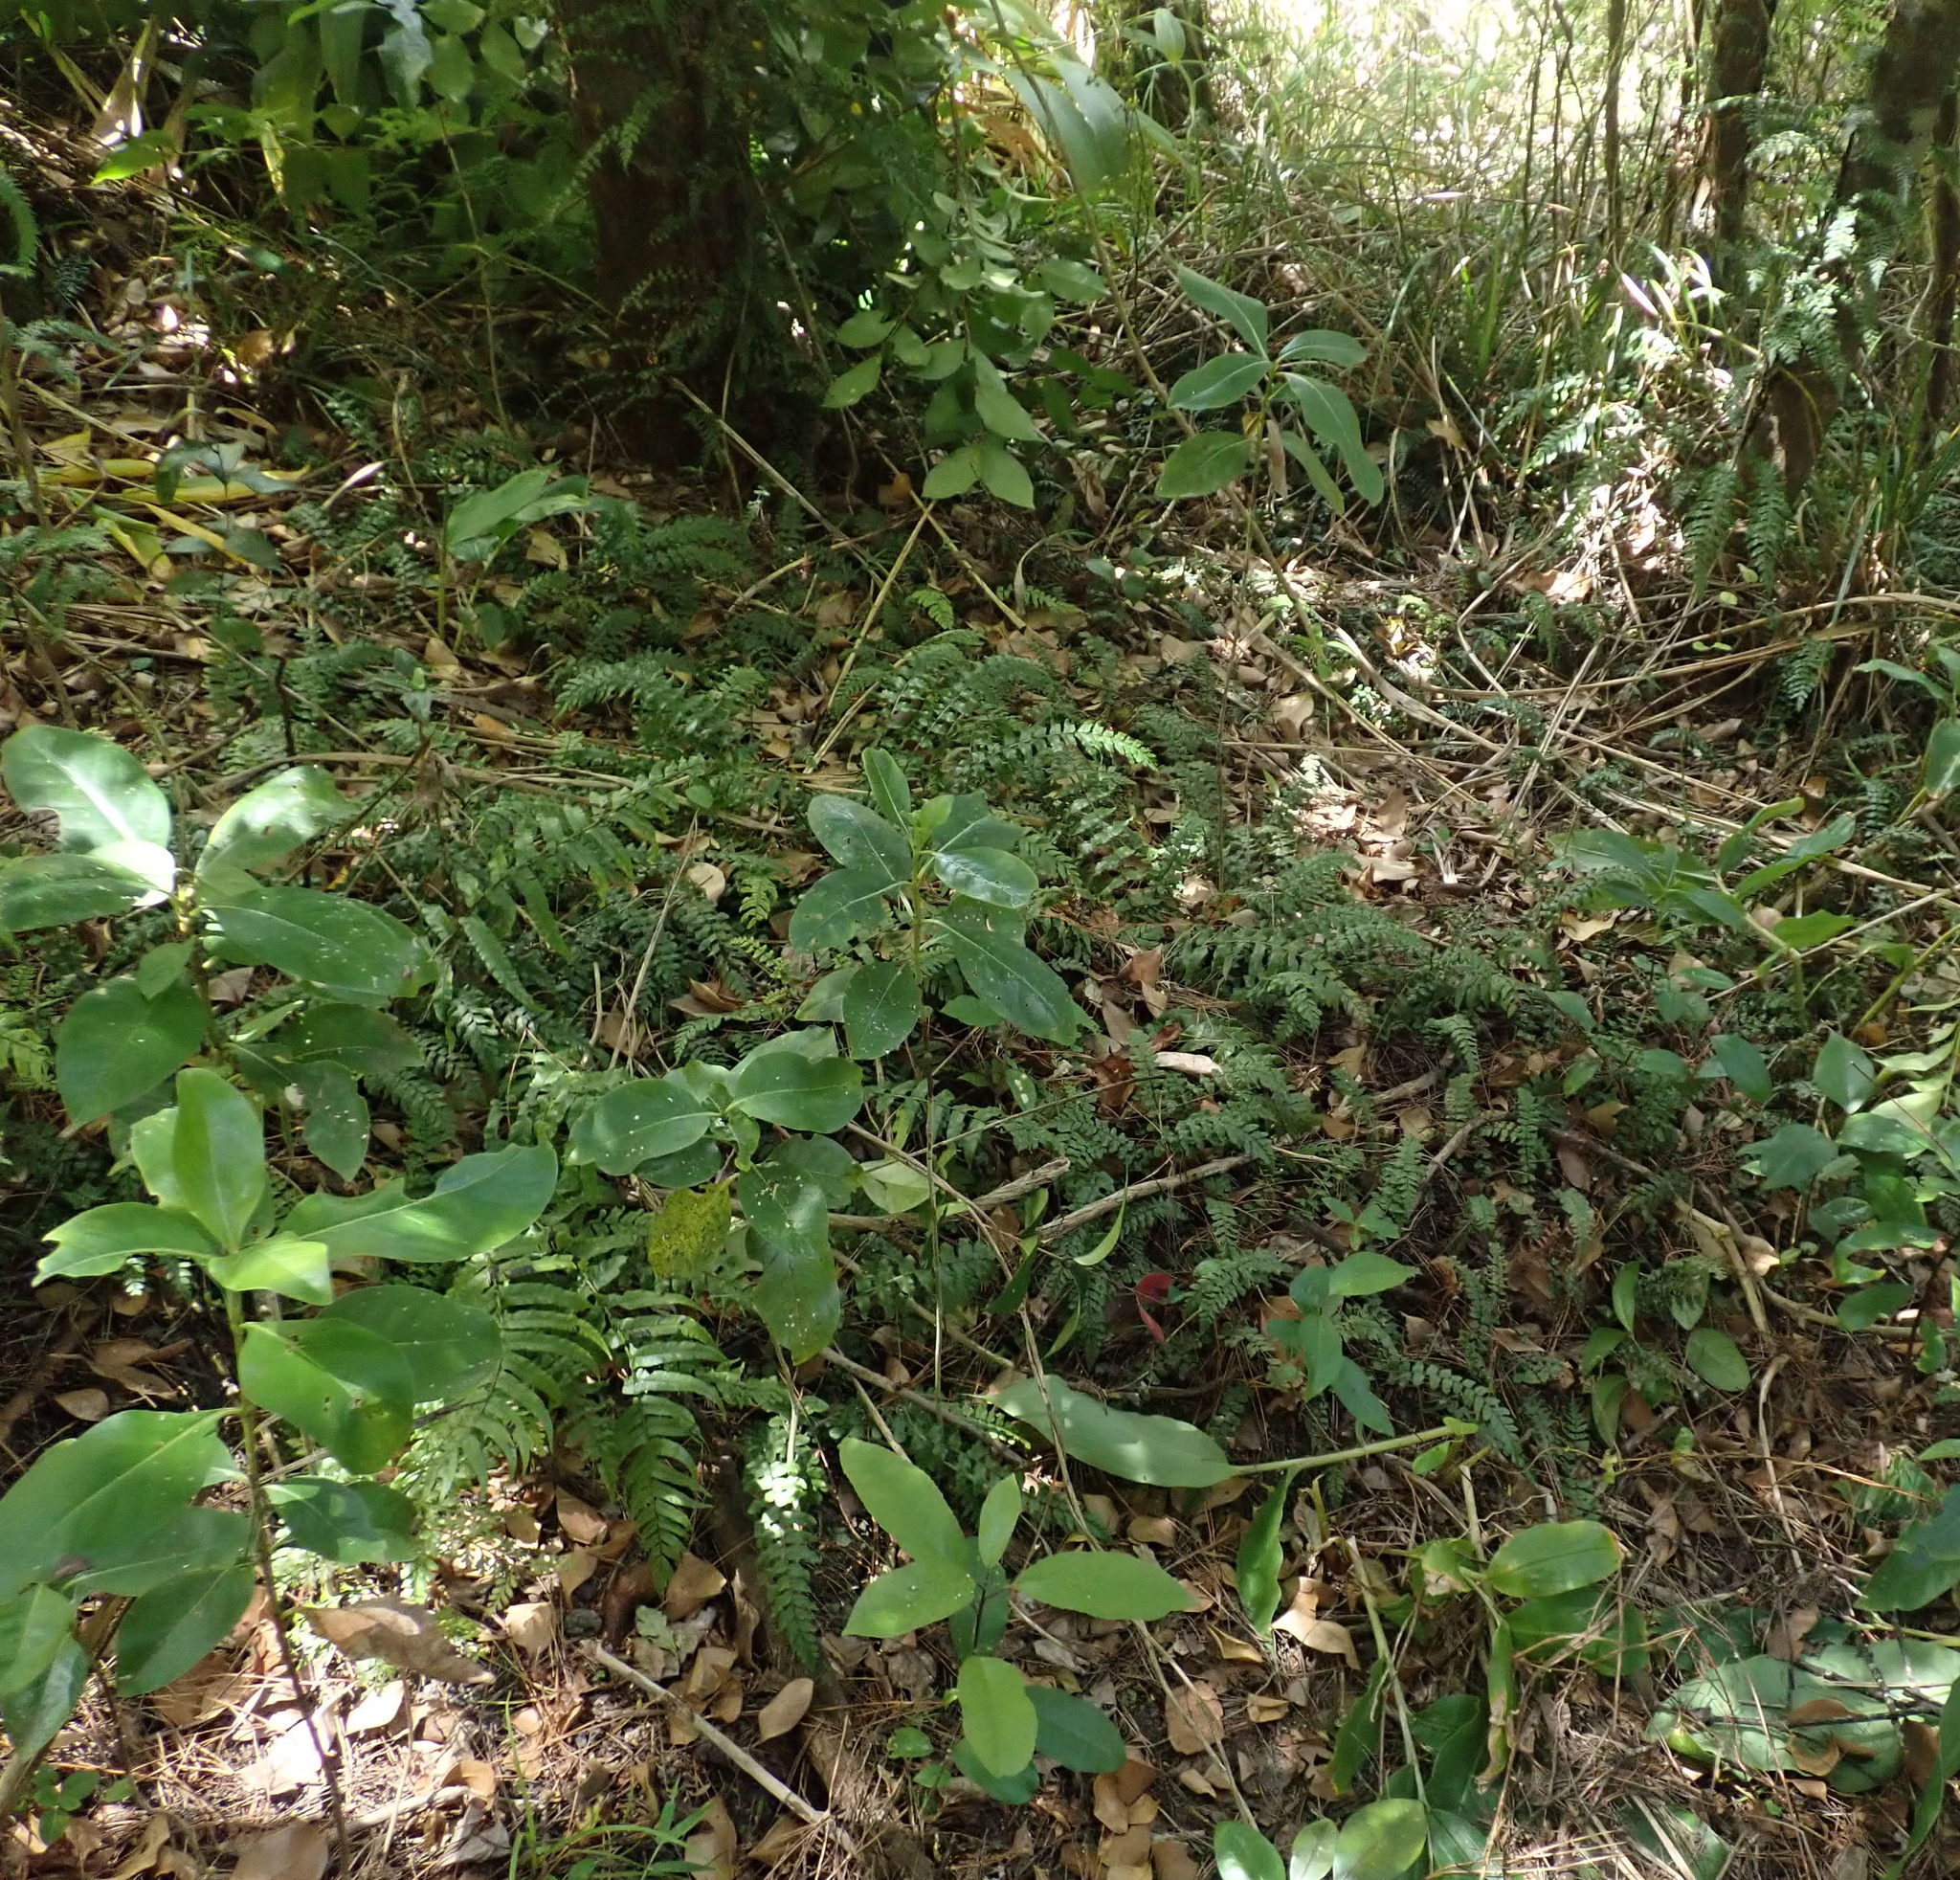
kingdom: Plantae
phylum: Tracheophyta
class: Magnoliopsida
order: Gentianales
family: Rubiaceae
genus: Coprosma
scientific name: Coprosma macrocarpa
